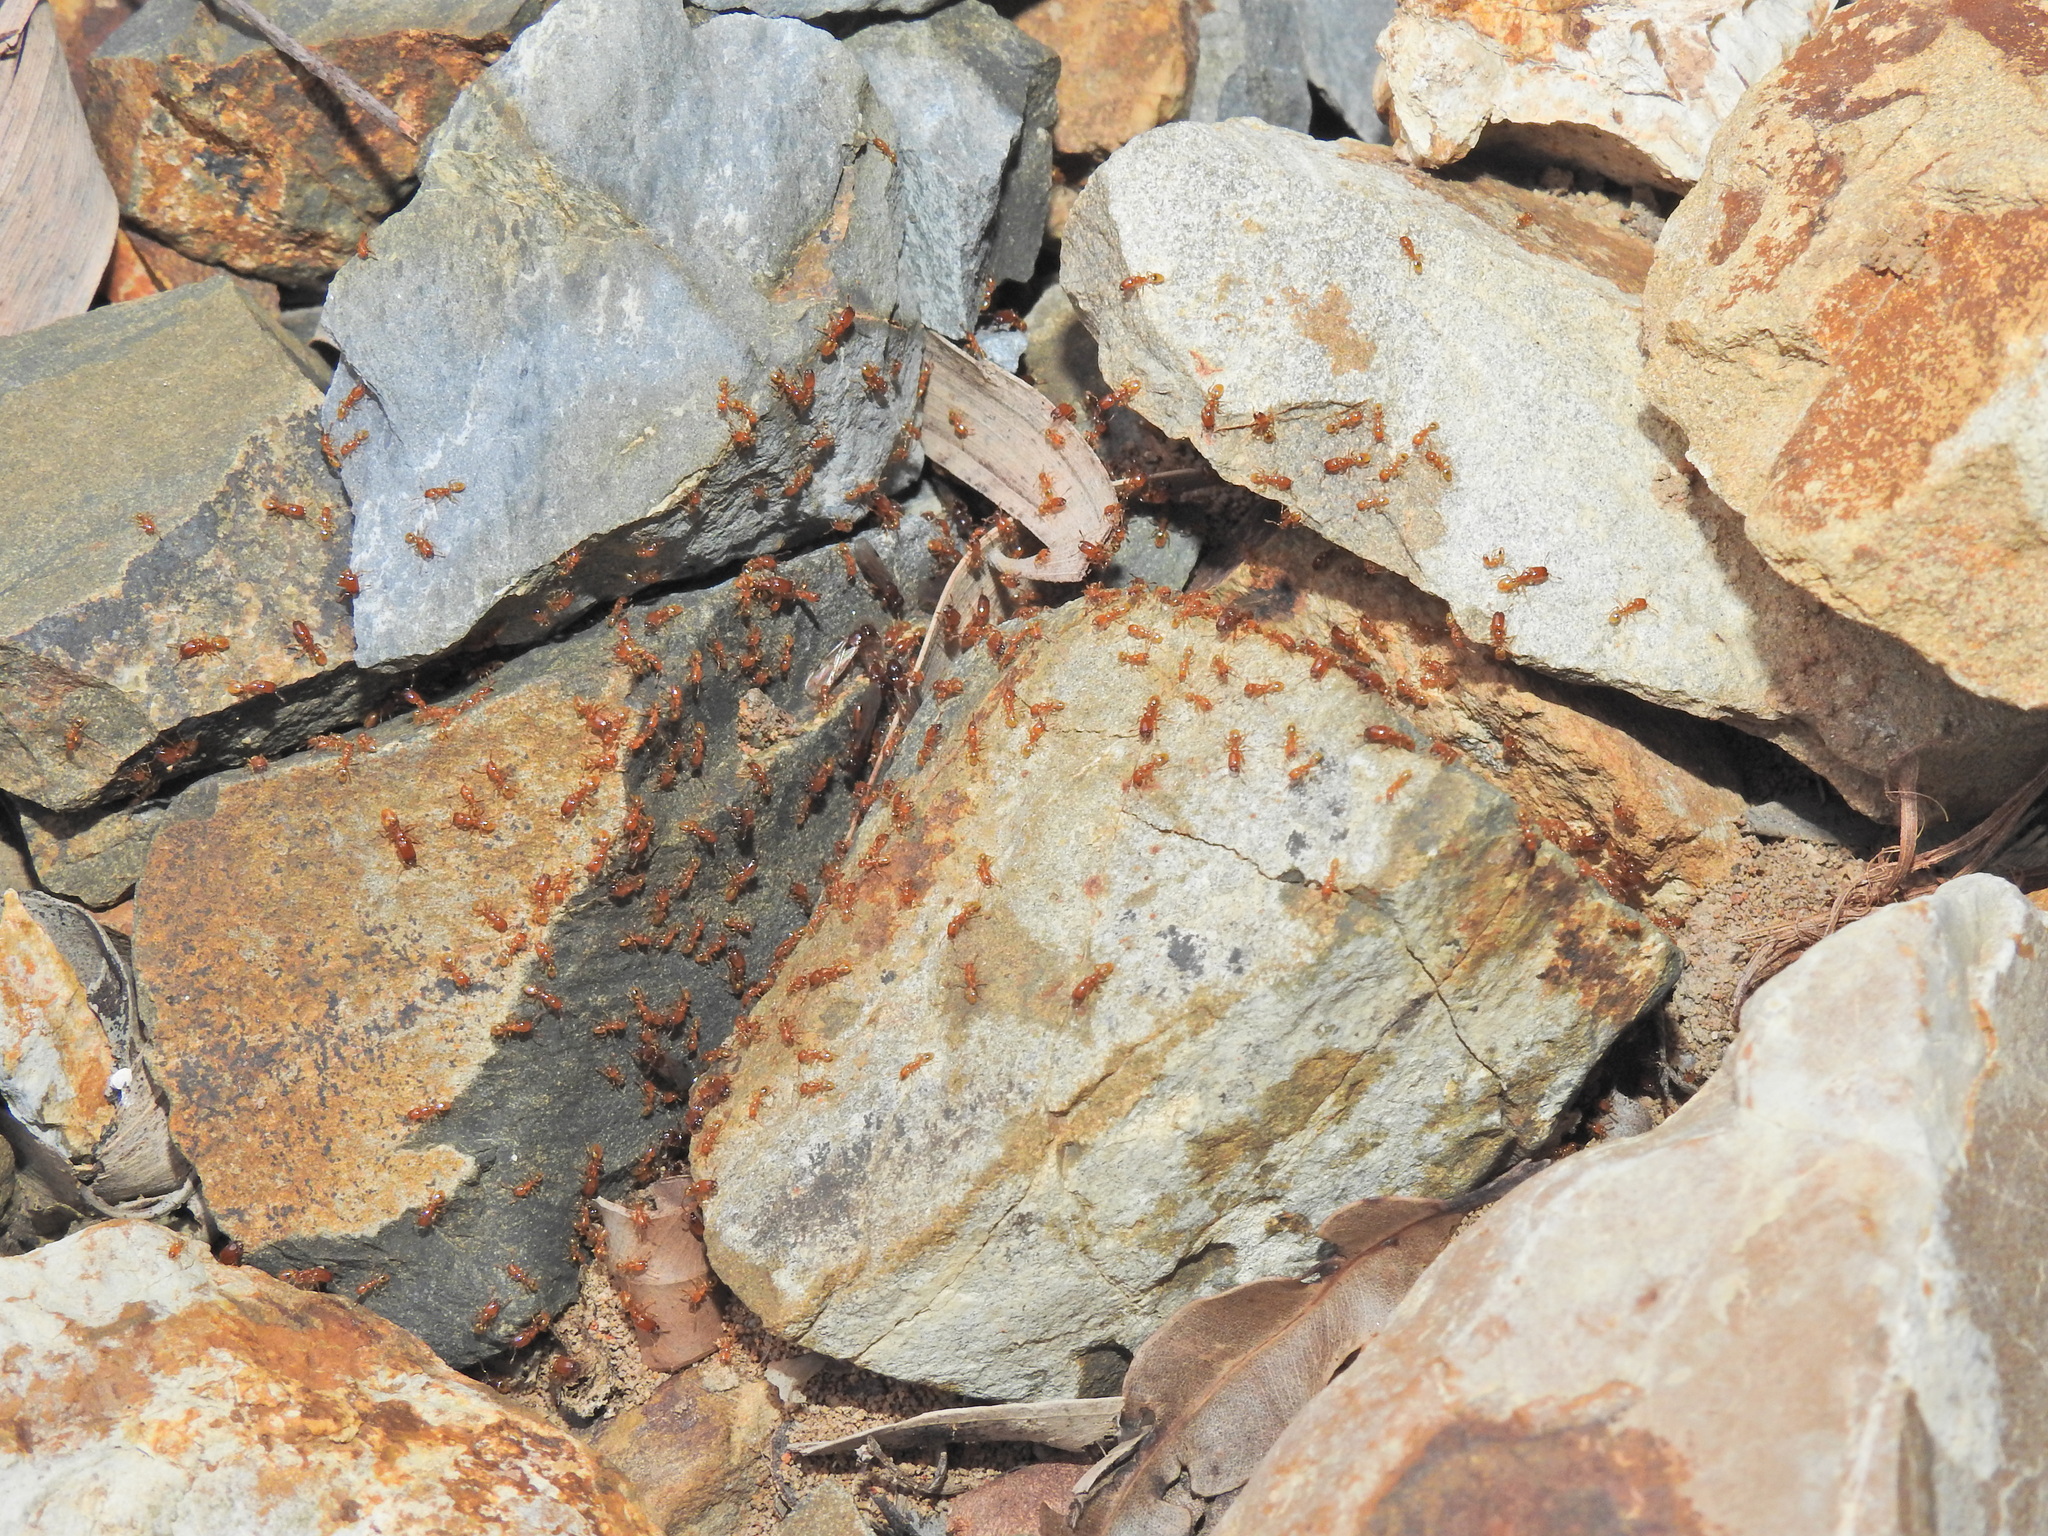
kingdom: Animalia
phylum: Arthropoda
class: Insecta
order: Hymenoptera
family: Formicidae
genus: Pheidole
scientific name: Pheidole
